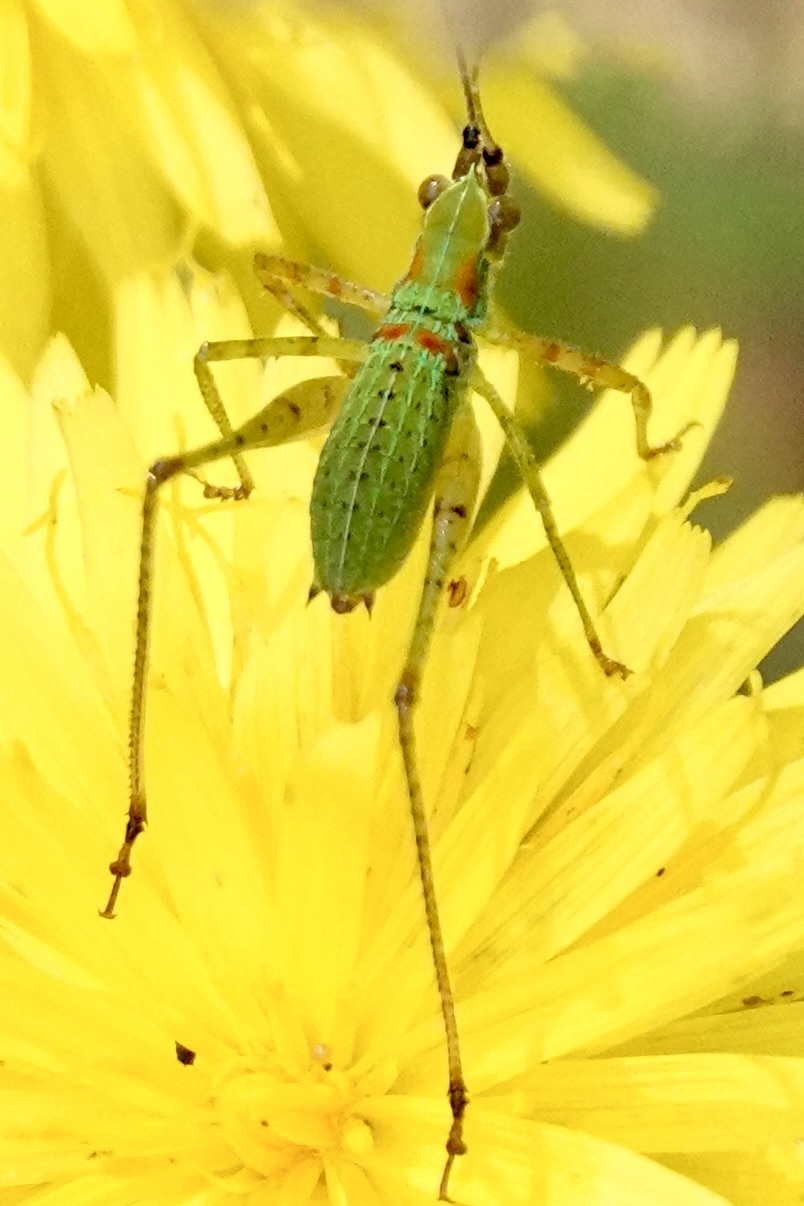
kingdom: Animalia
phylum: Arthropoda
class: Insecta
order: Orthoptera
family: Tettigoniidae
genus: Scudderia
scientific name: Scudderia furcata
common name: Fork-tailed bush katydid
